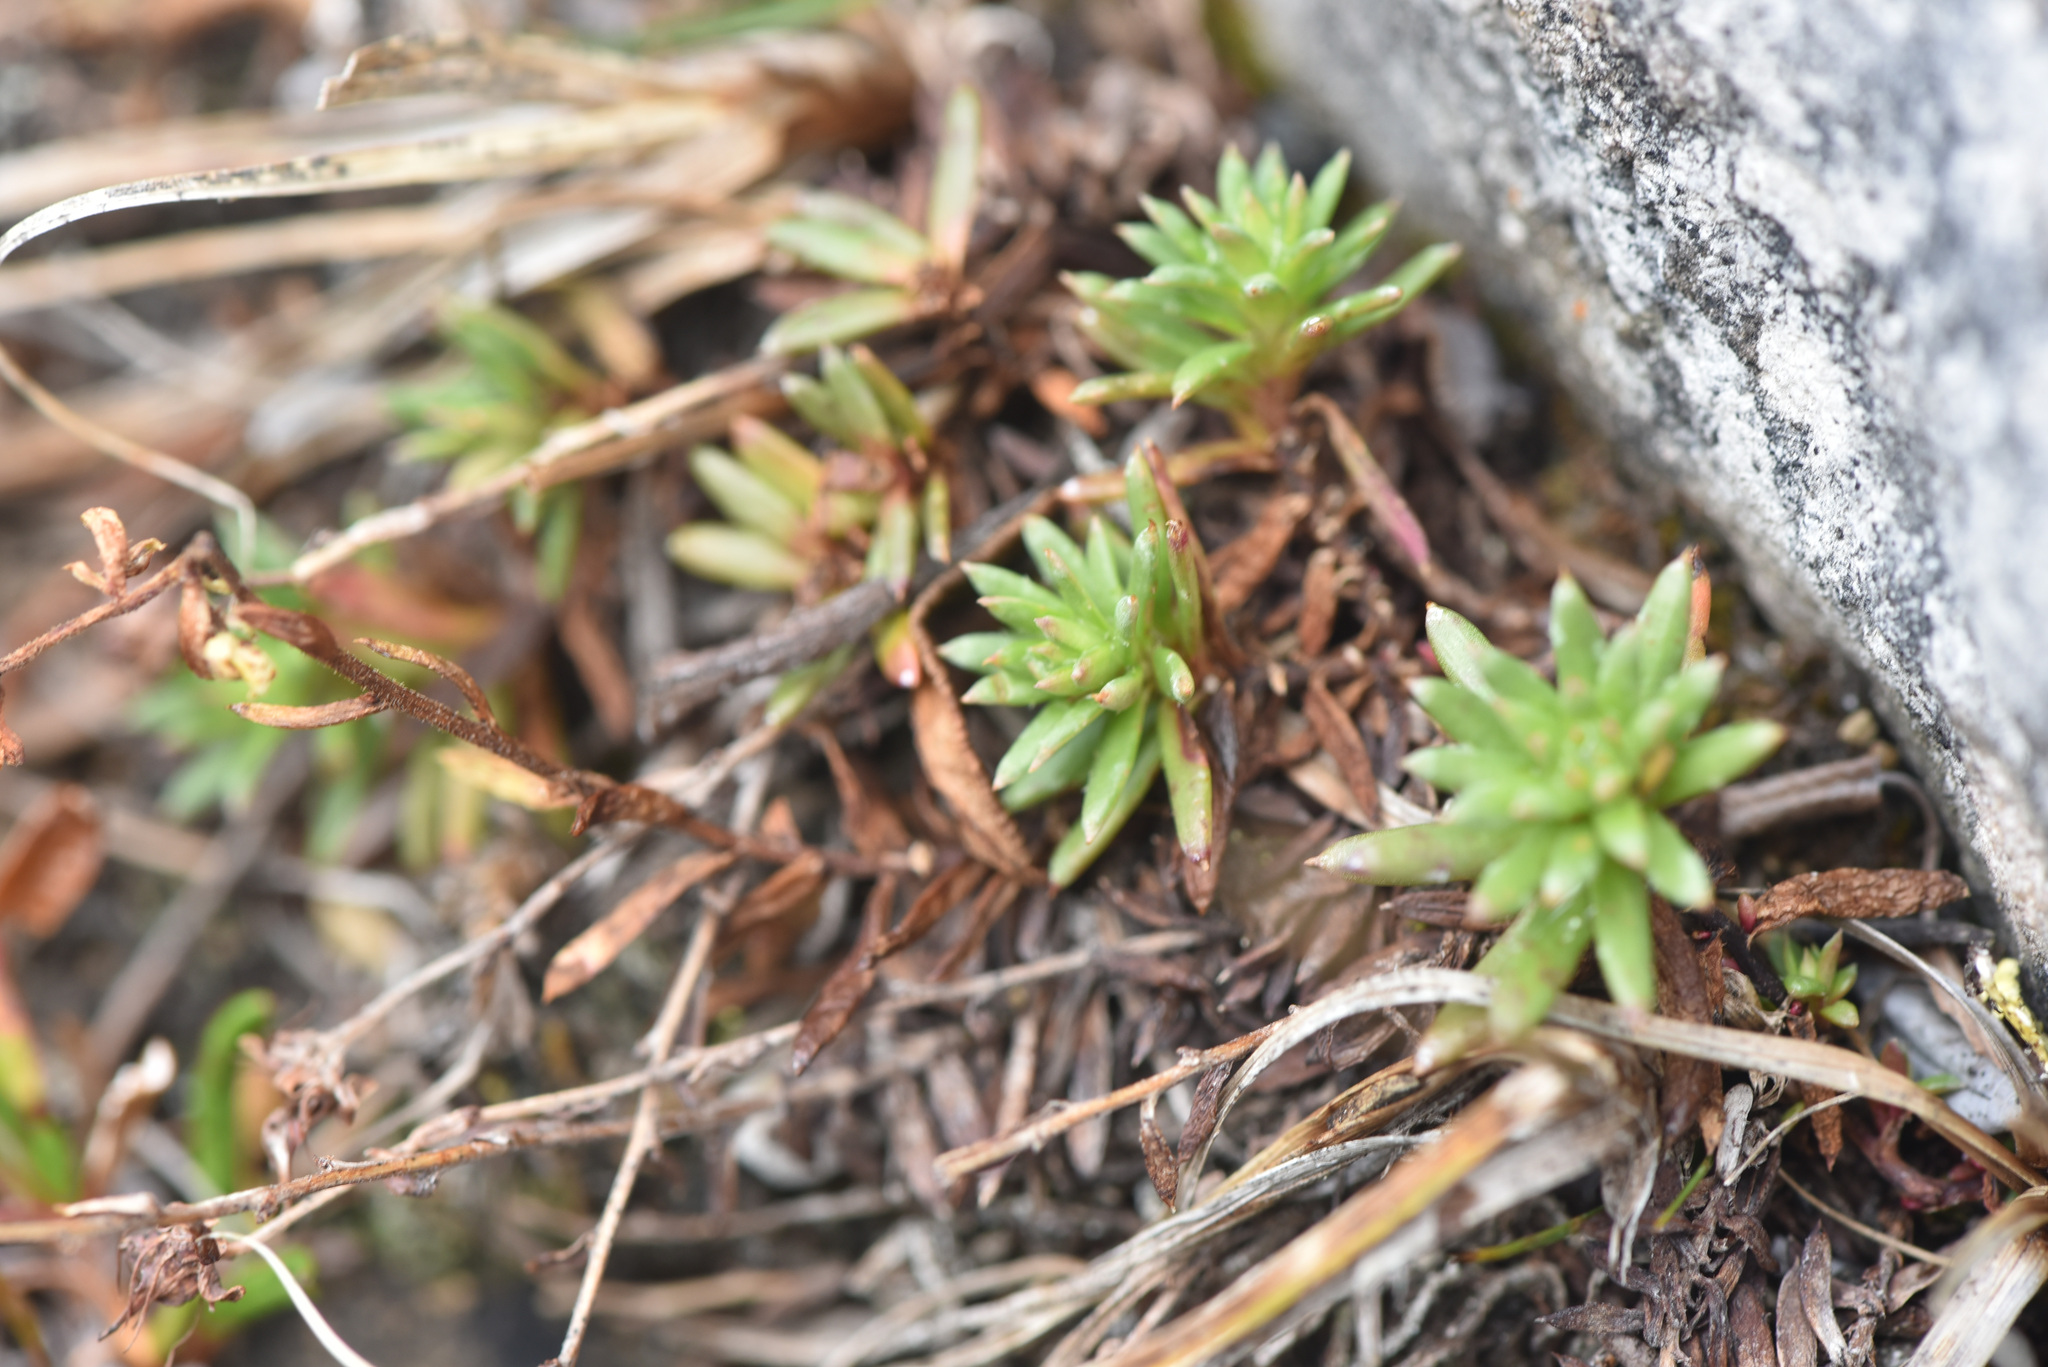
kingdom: Plantae
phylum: Tracheophyta
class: Magnoliopsida
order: Saxifragales
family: Saxifragaceae
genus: Saxifraga
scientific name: Saxifraga aizoides
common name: Yellow mountain saxifrage
